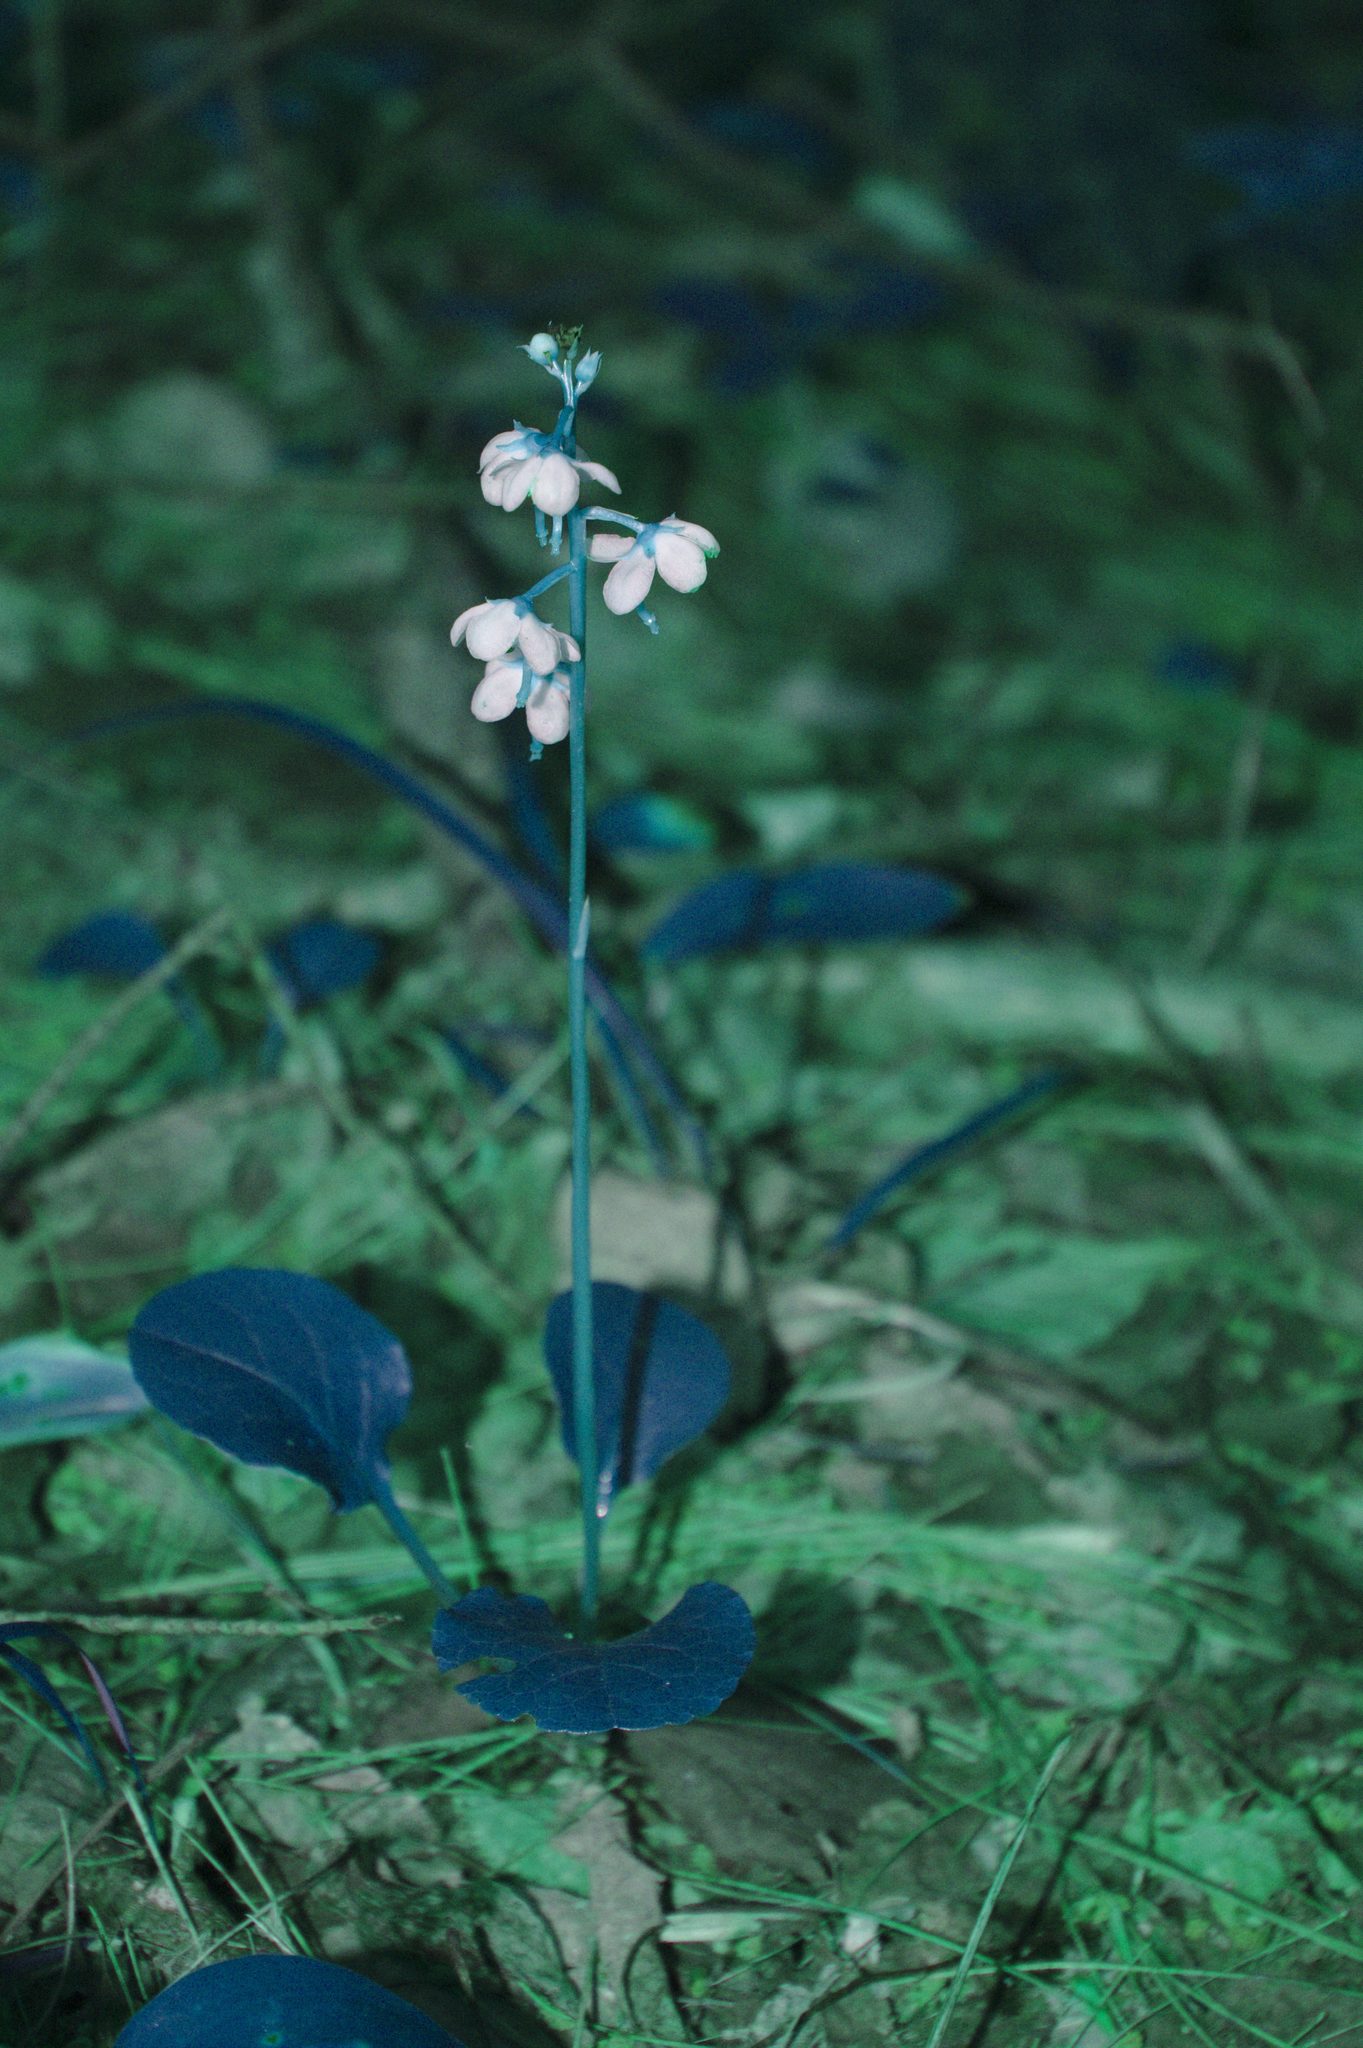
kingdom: Plantae
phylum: Tracheophyta
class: Magnoliopsida
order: Ericales
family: Ericaceae
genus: Pyrola
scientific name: Pyrola americana
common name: American wintergreen
